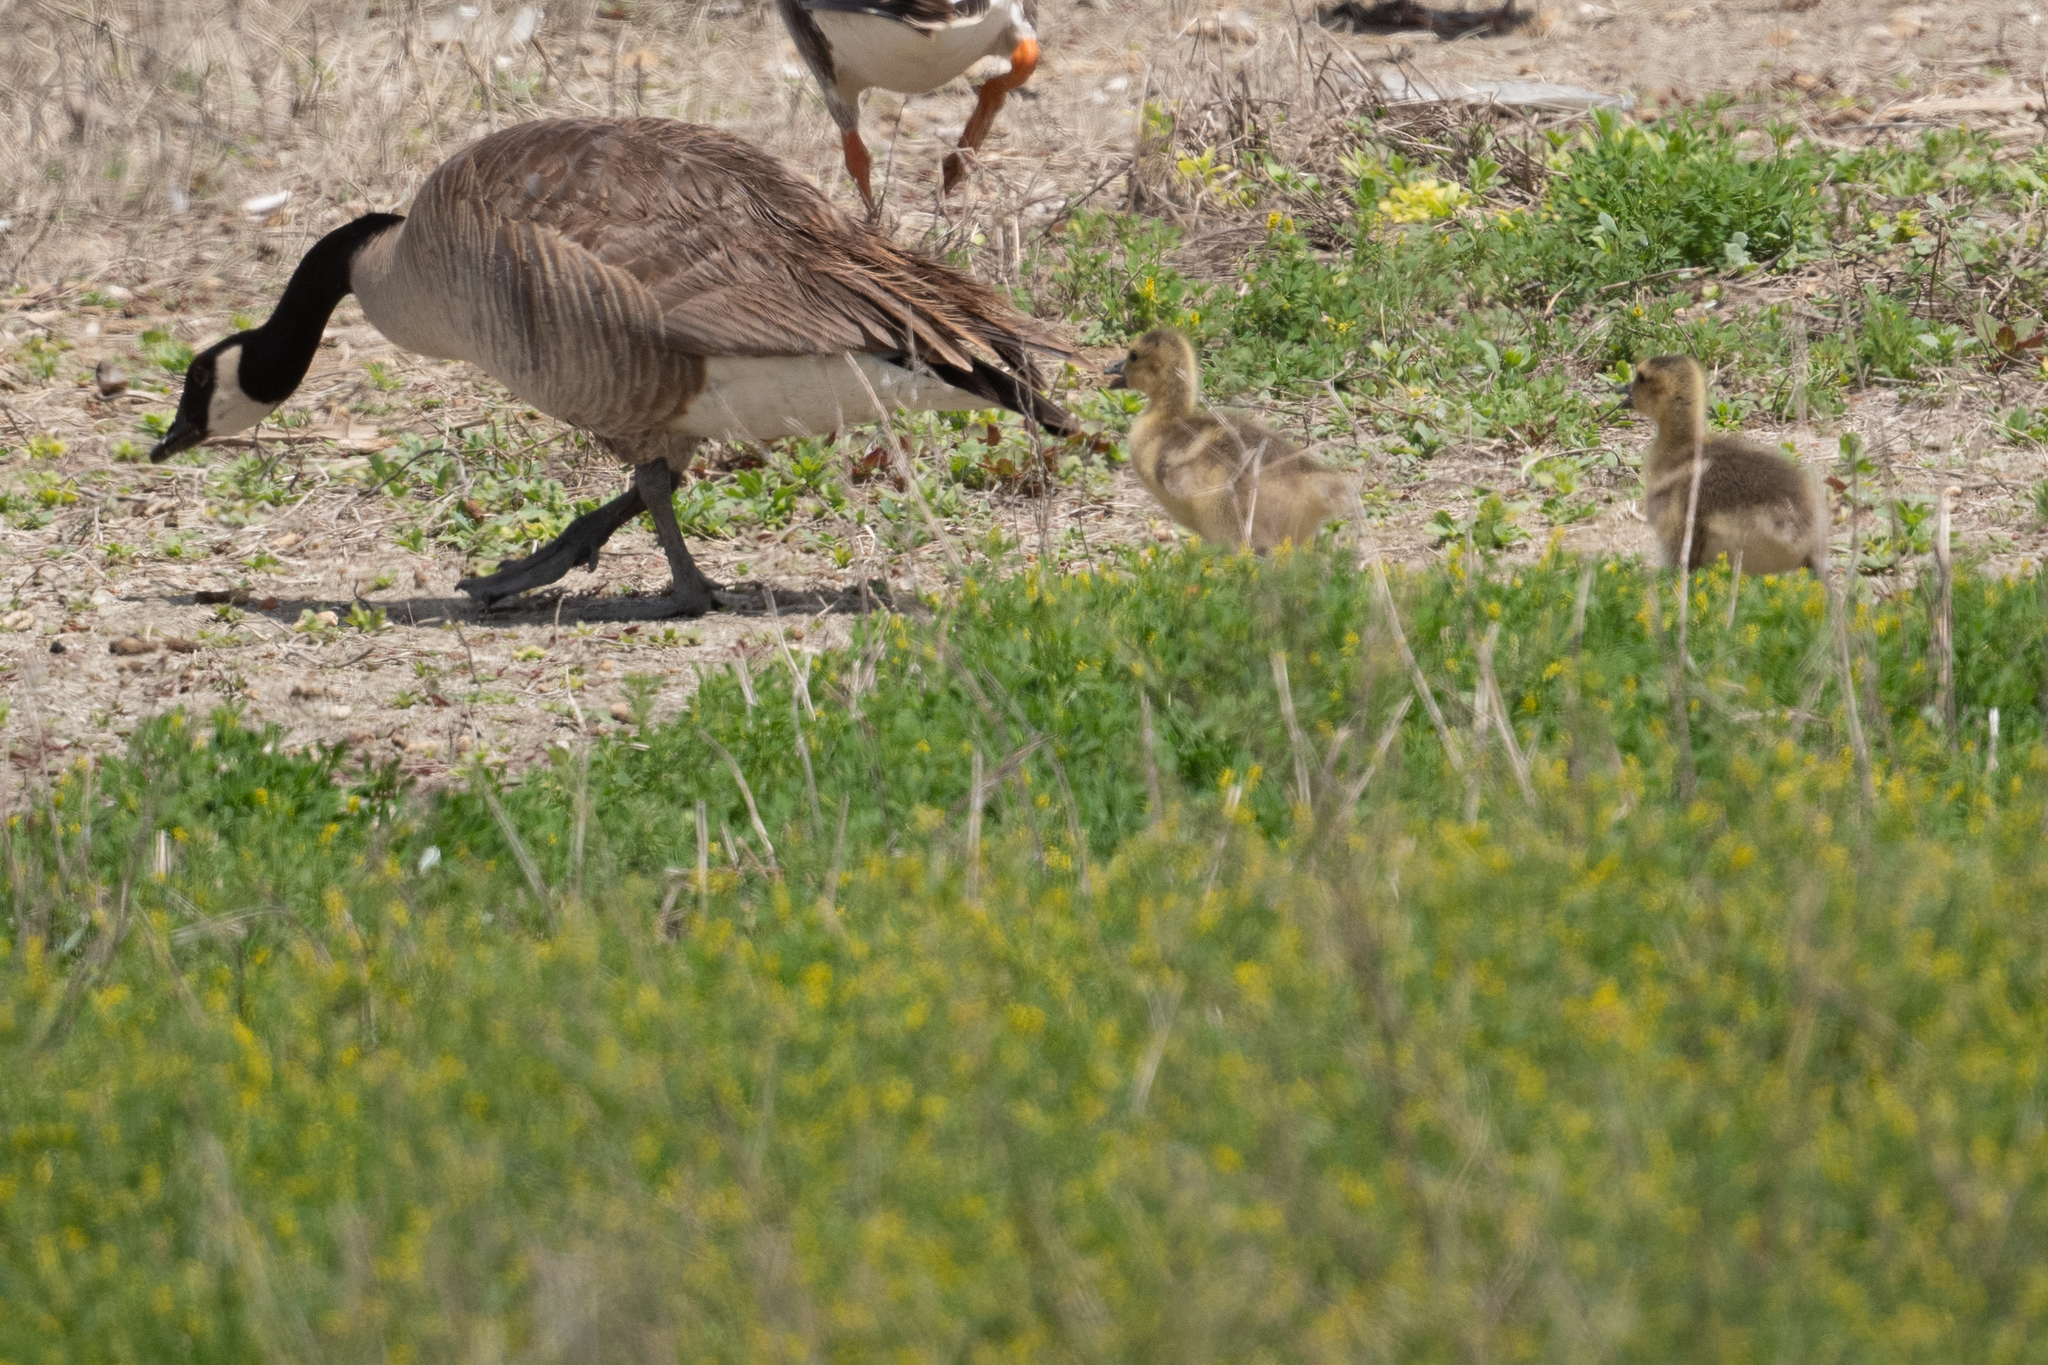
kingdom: Animalia
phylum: Chordata
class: Aves
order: Anseriformes
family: Anatidae
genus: Branta
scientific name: Branta canadensis
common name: Canada goose
